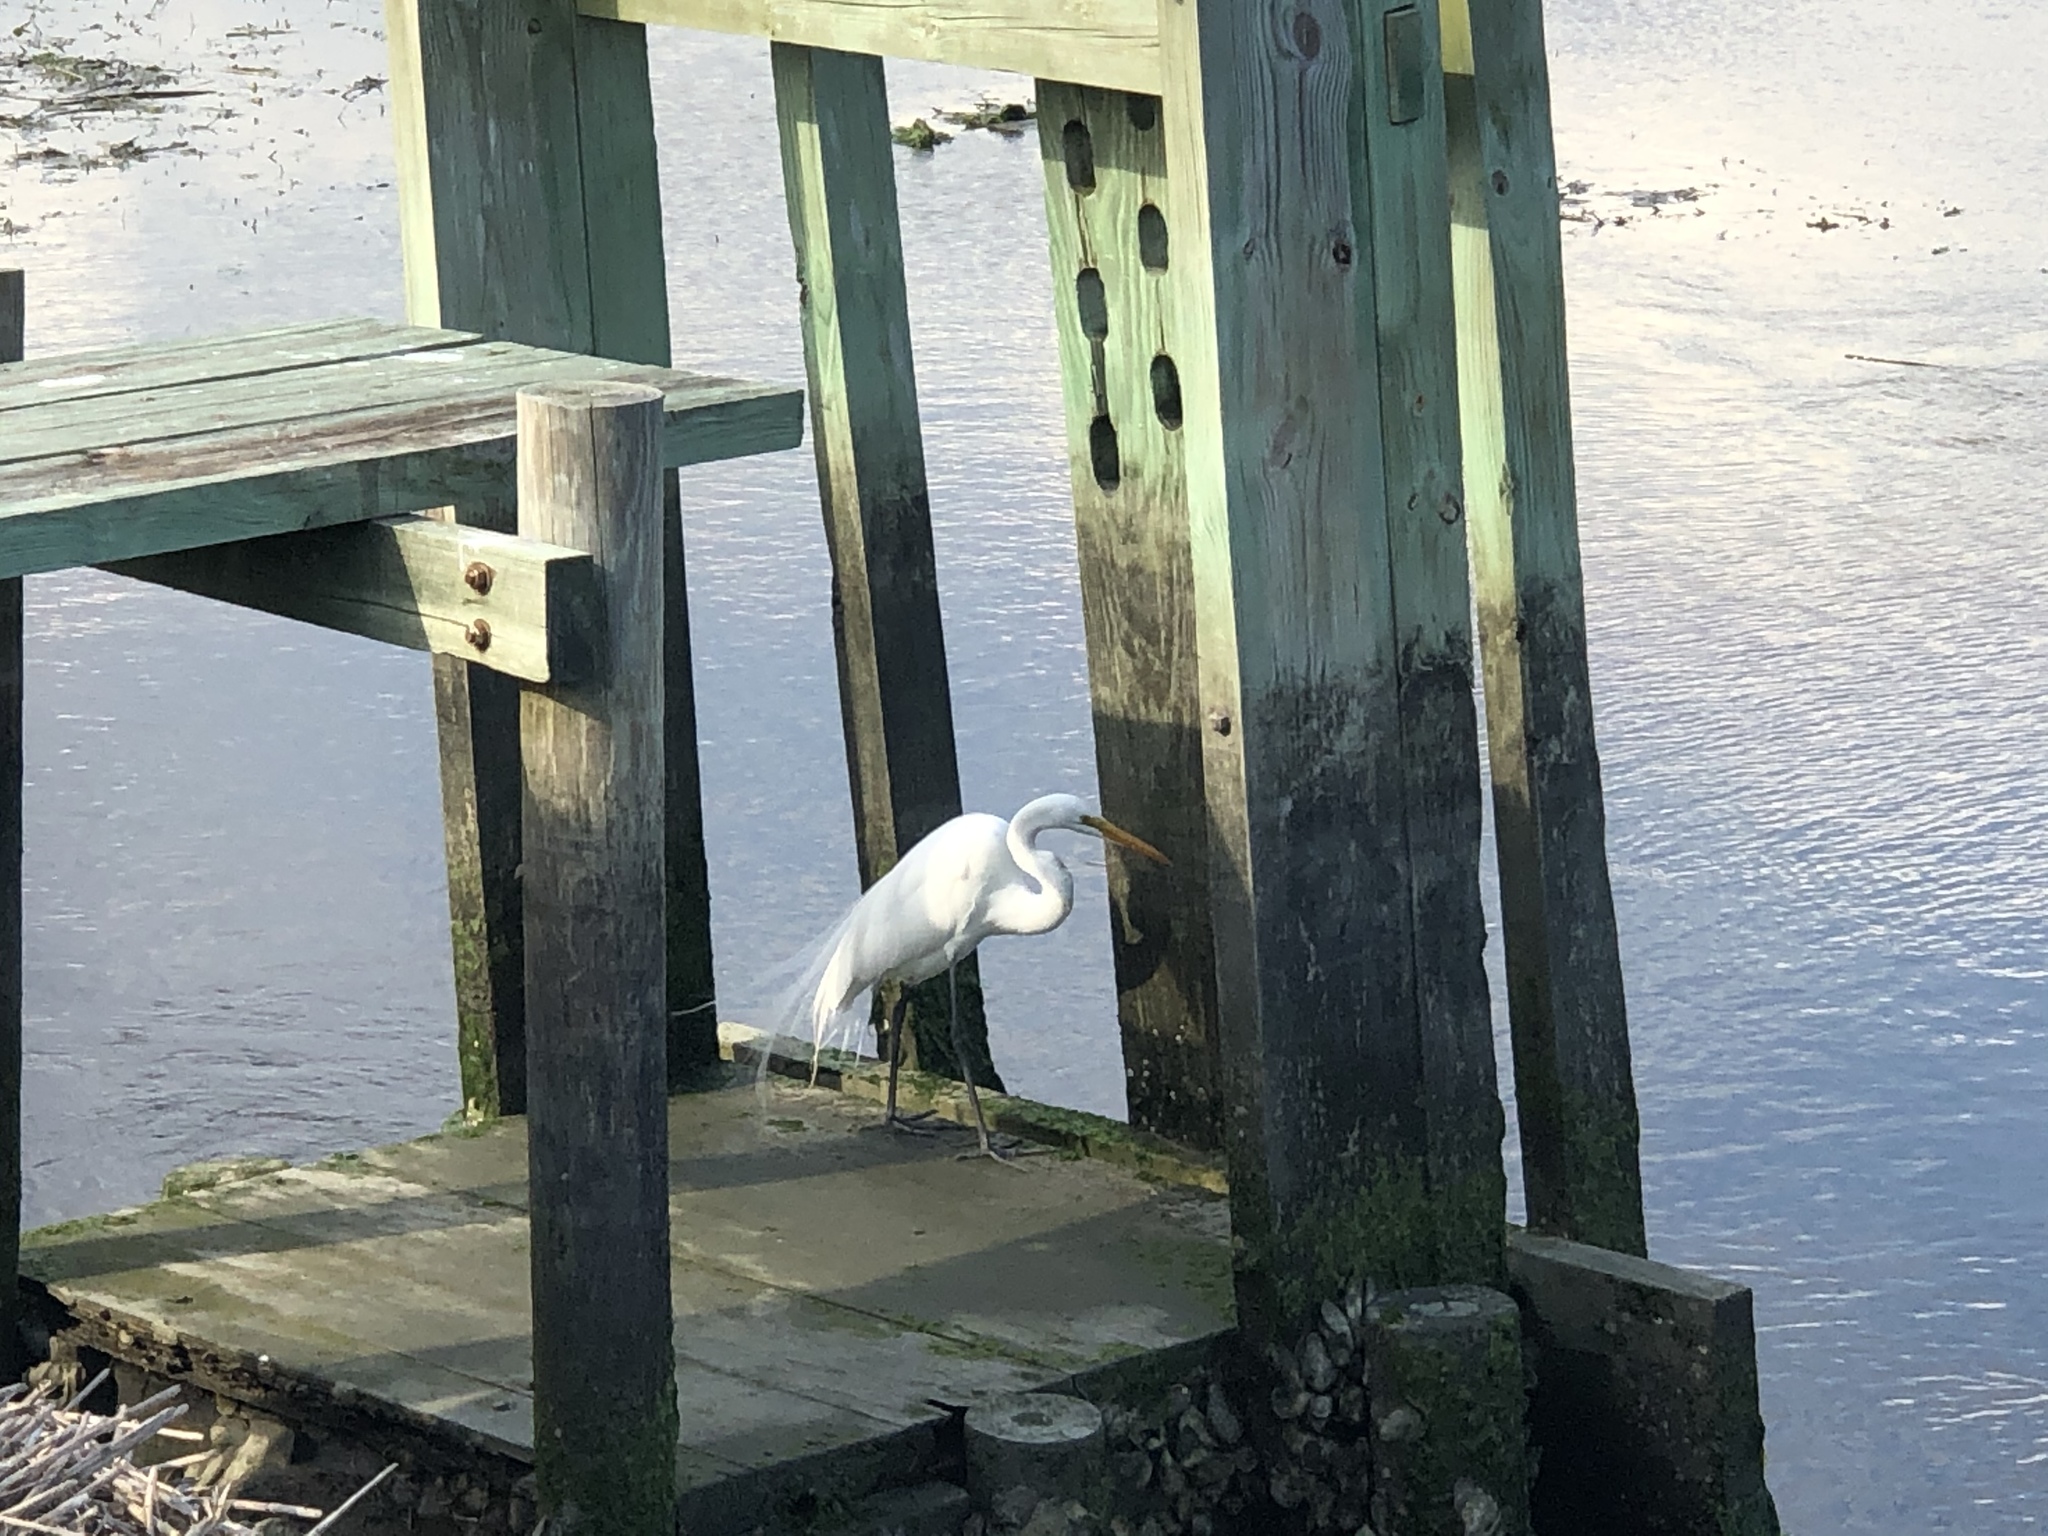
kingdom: Animalia
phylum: Chordata
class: Aves
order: Pelecaniformes
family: Ardeidae
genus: Ardea
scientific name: Ardea alba
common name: Great egret
